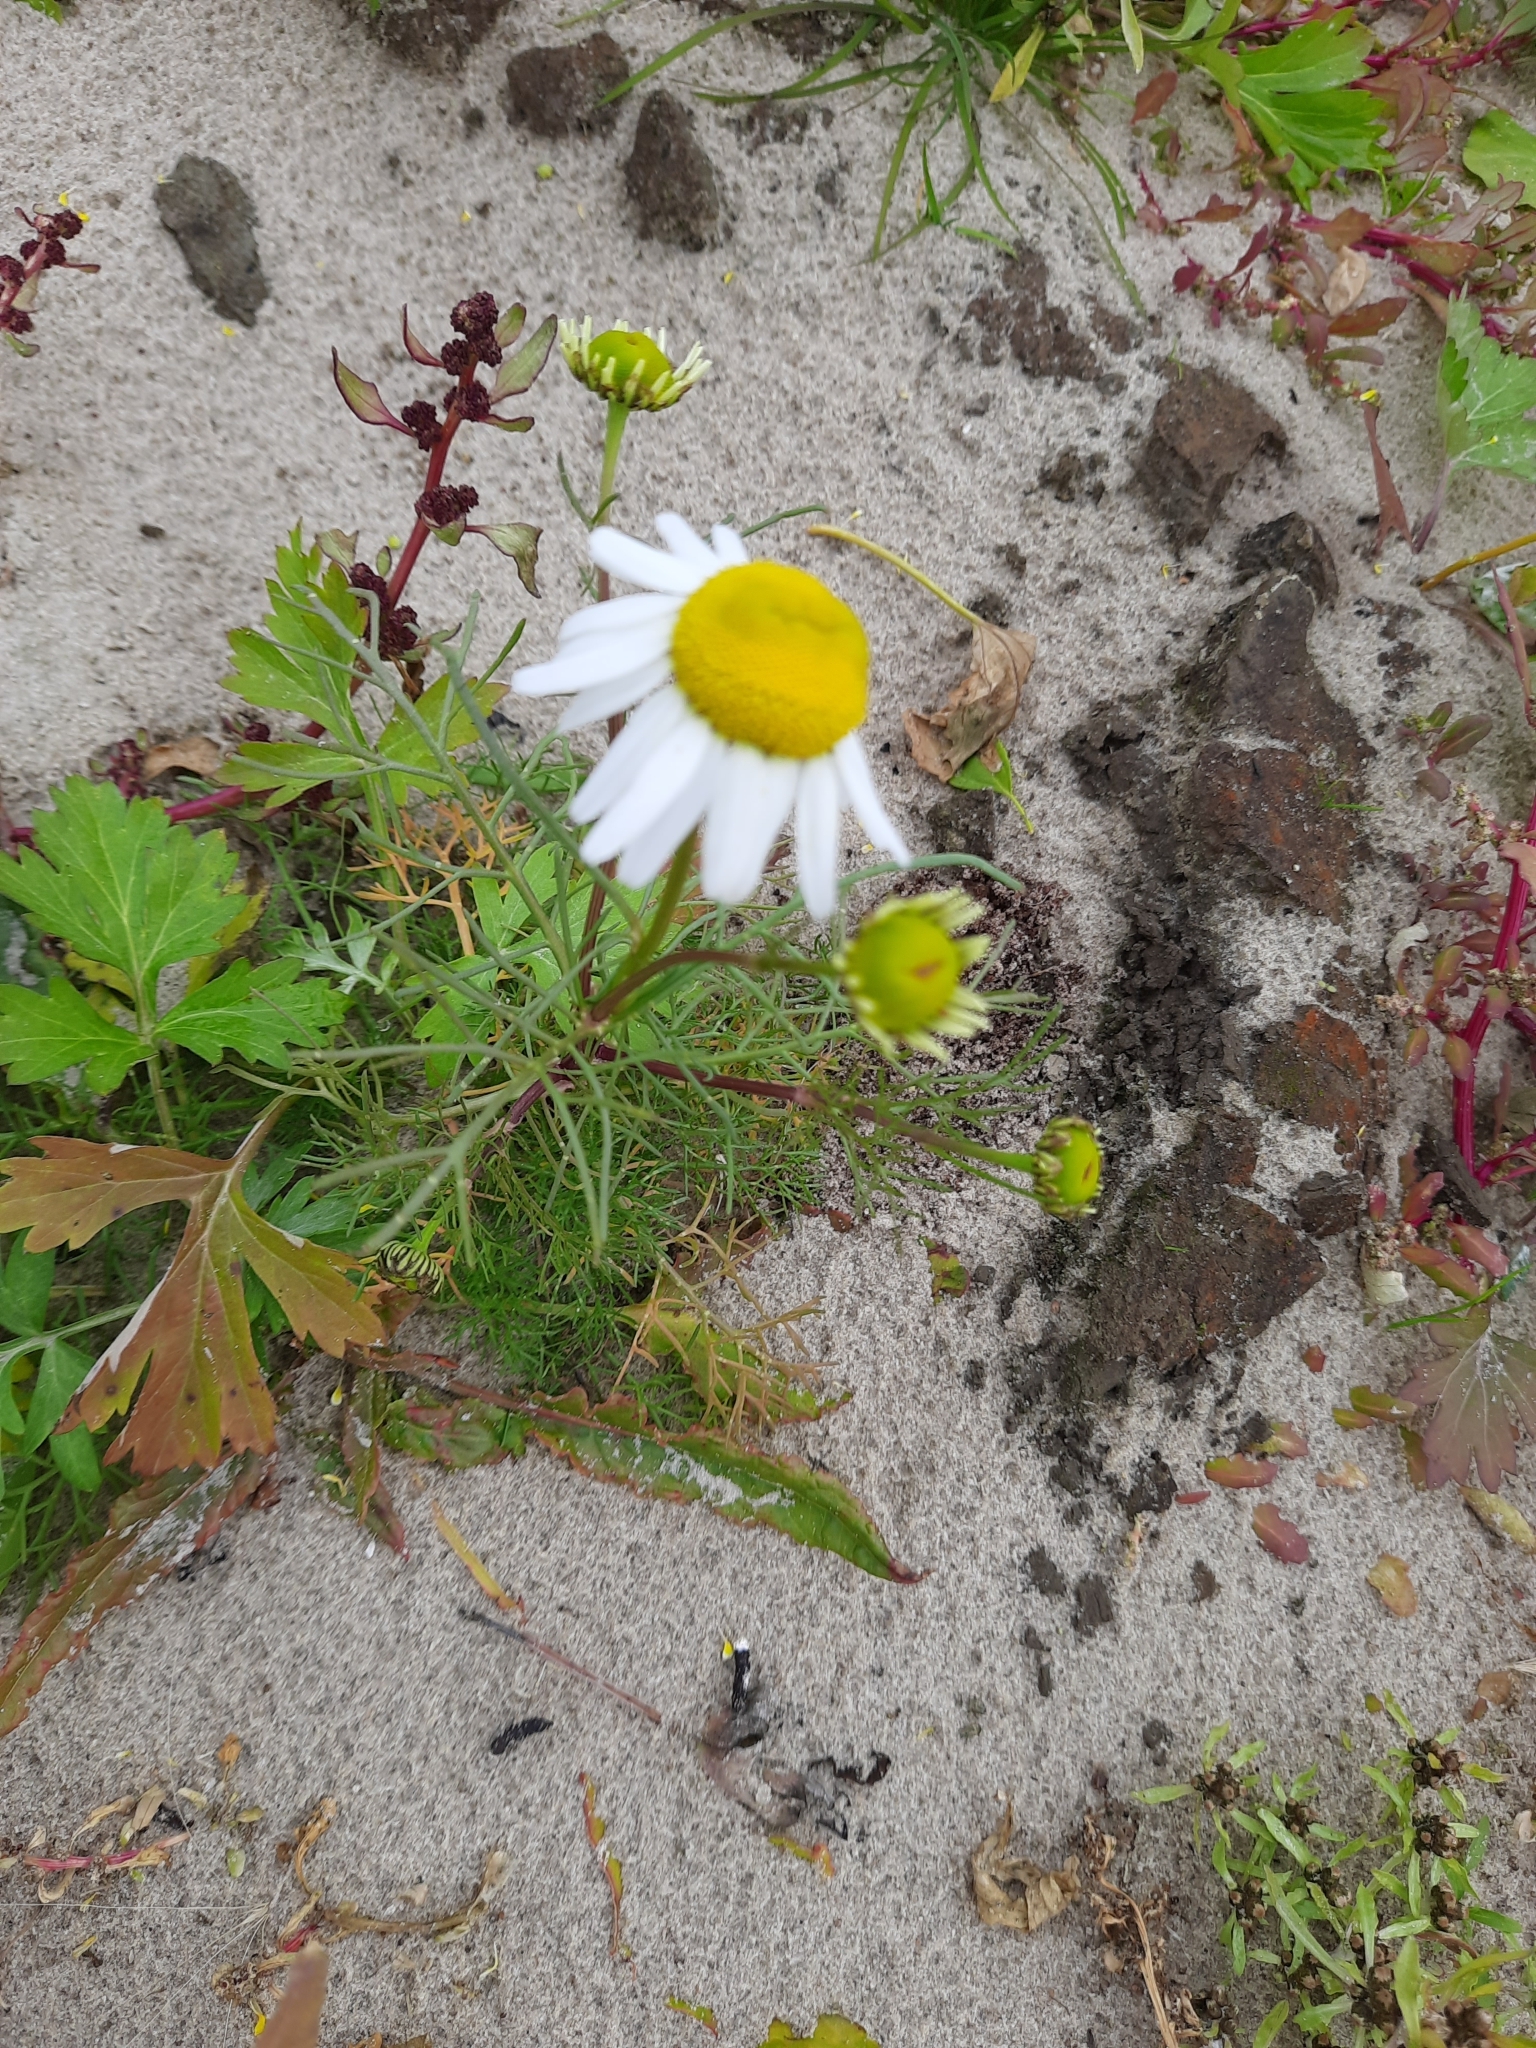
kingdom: Plantae
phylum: Tracheophyta
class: Magnoliopsida
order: Asterales
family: Asteraceae
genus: Tripleurospermum
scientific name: Tripleurospermum inodorum
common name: Scentless mayweed
